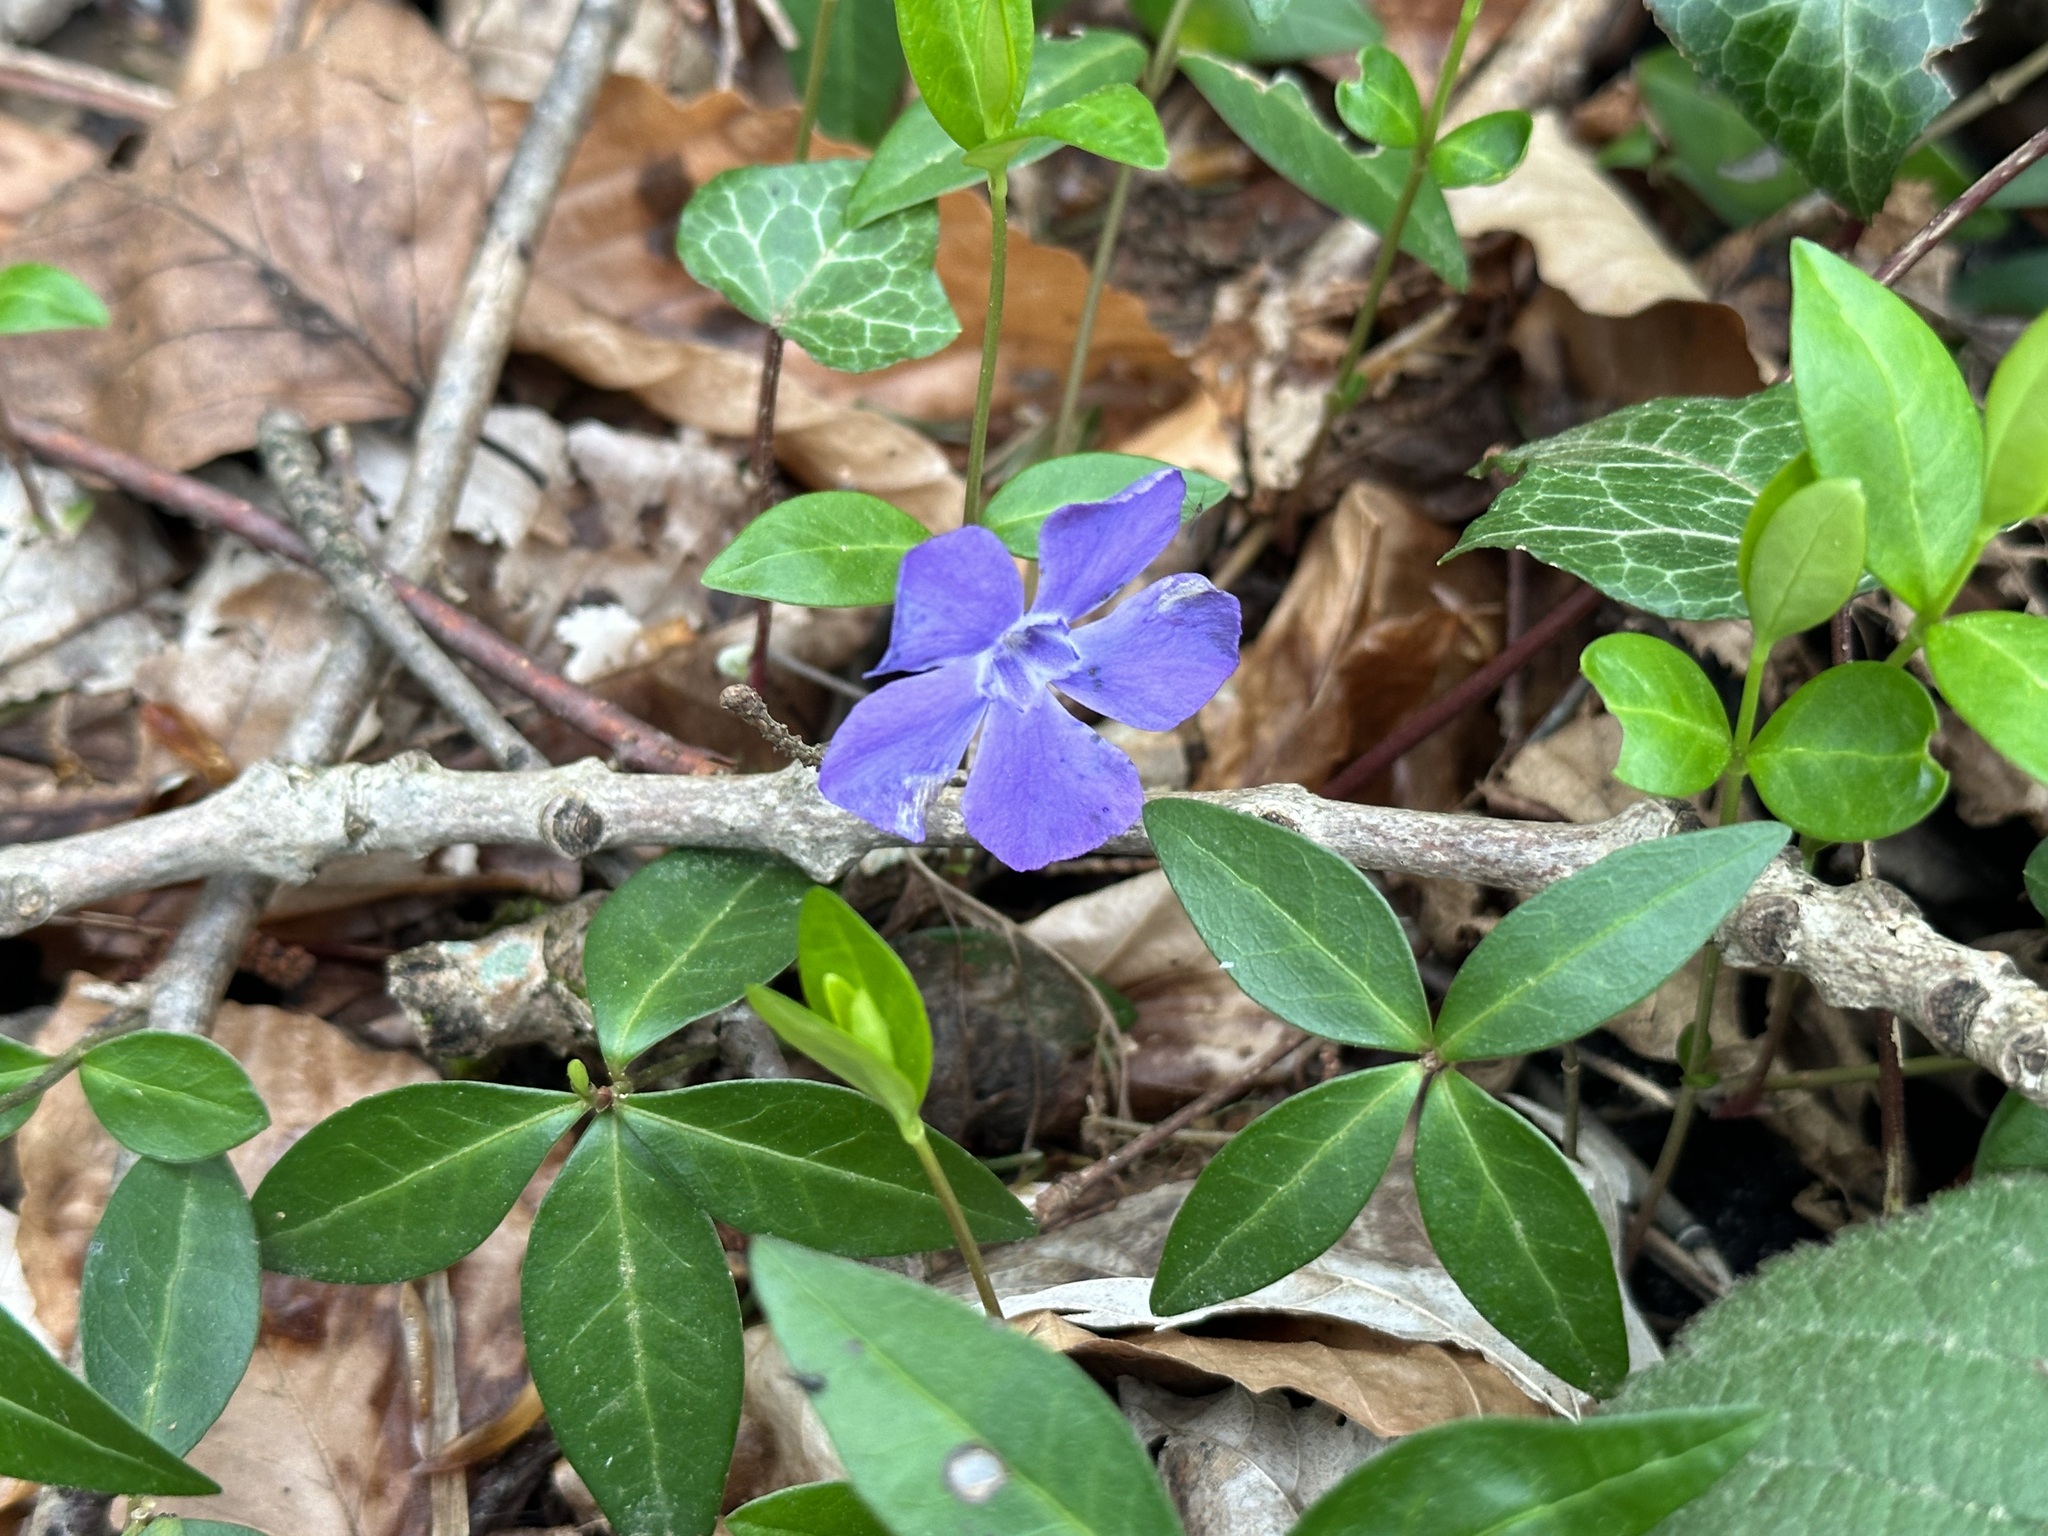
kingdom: Plantae
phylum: Tracheophyta
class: Magnoliopsida
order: Gentianales
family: Apocynaceae
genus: Vinca
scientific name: Vinca minor
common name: Lesser periwinkle
